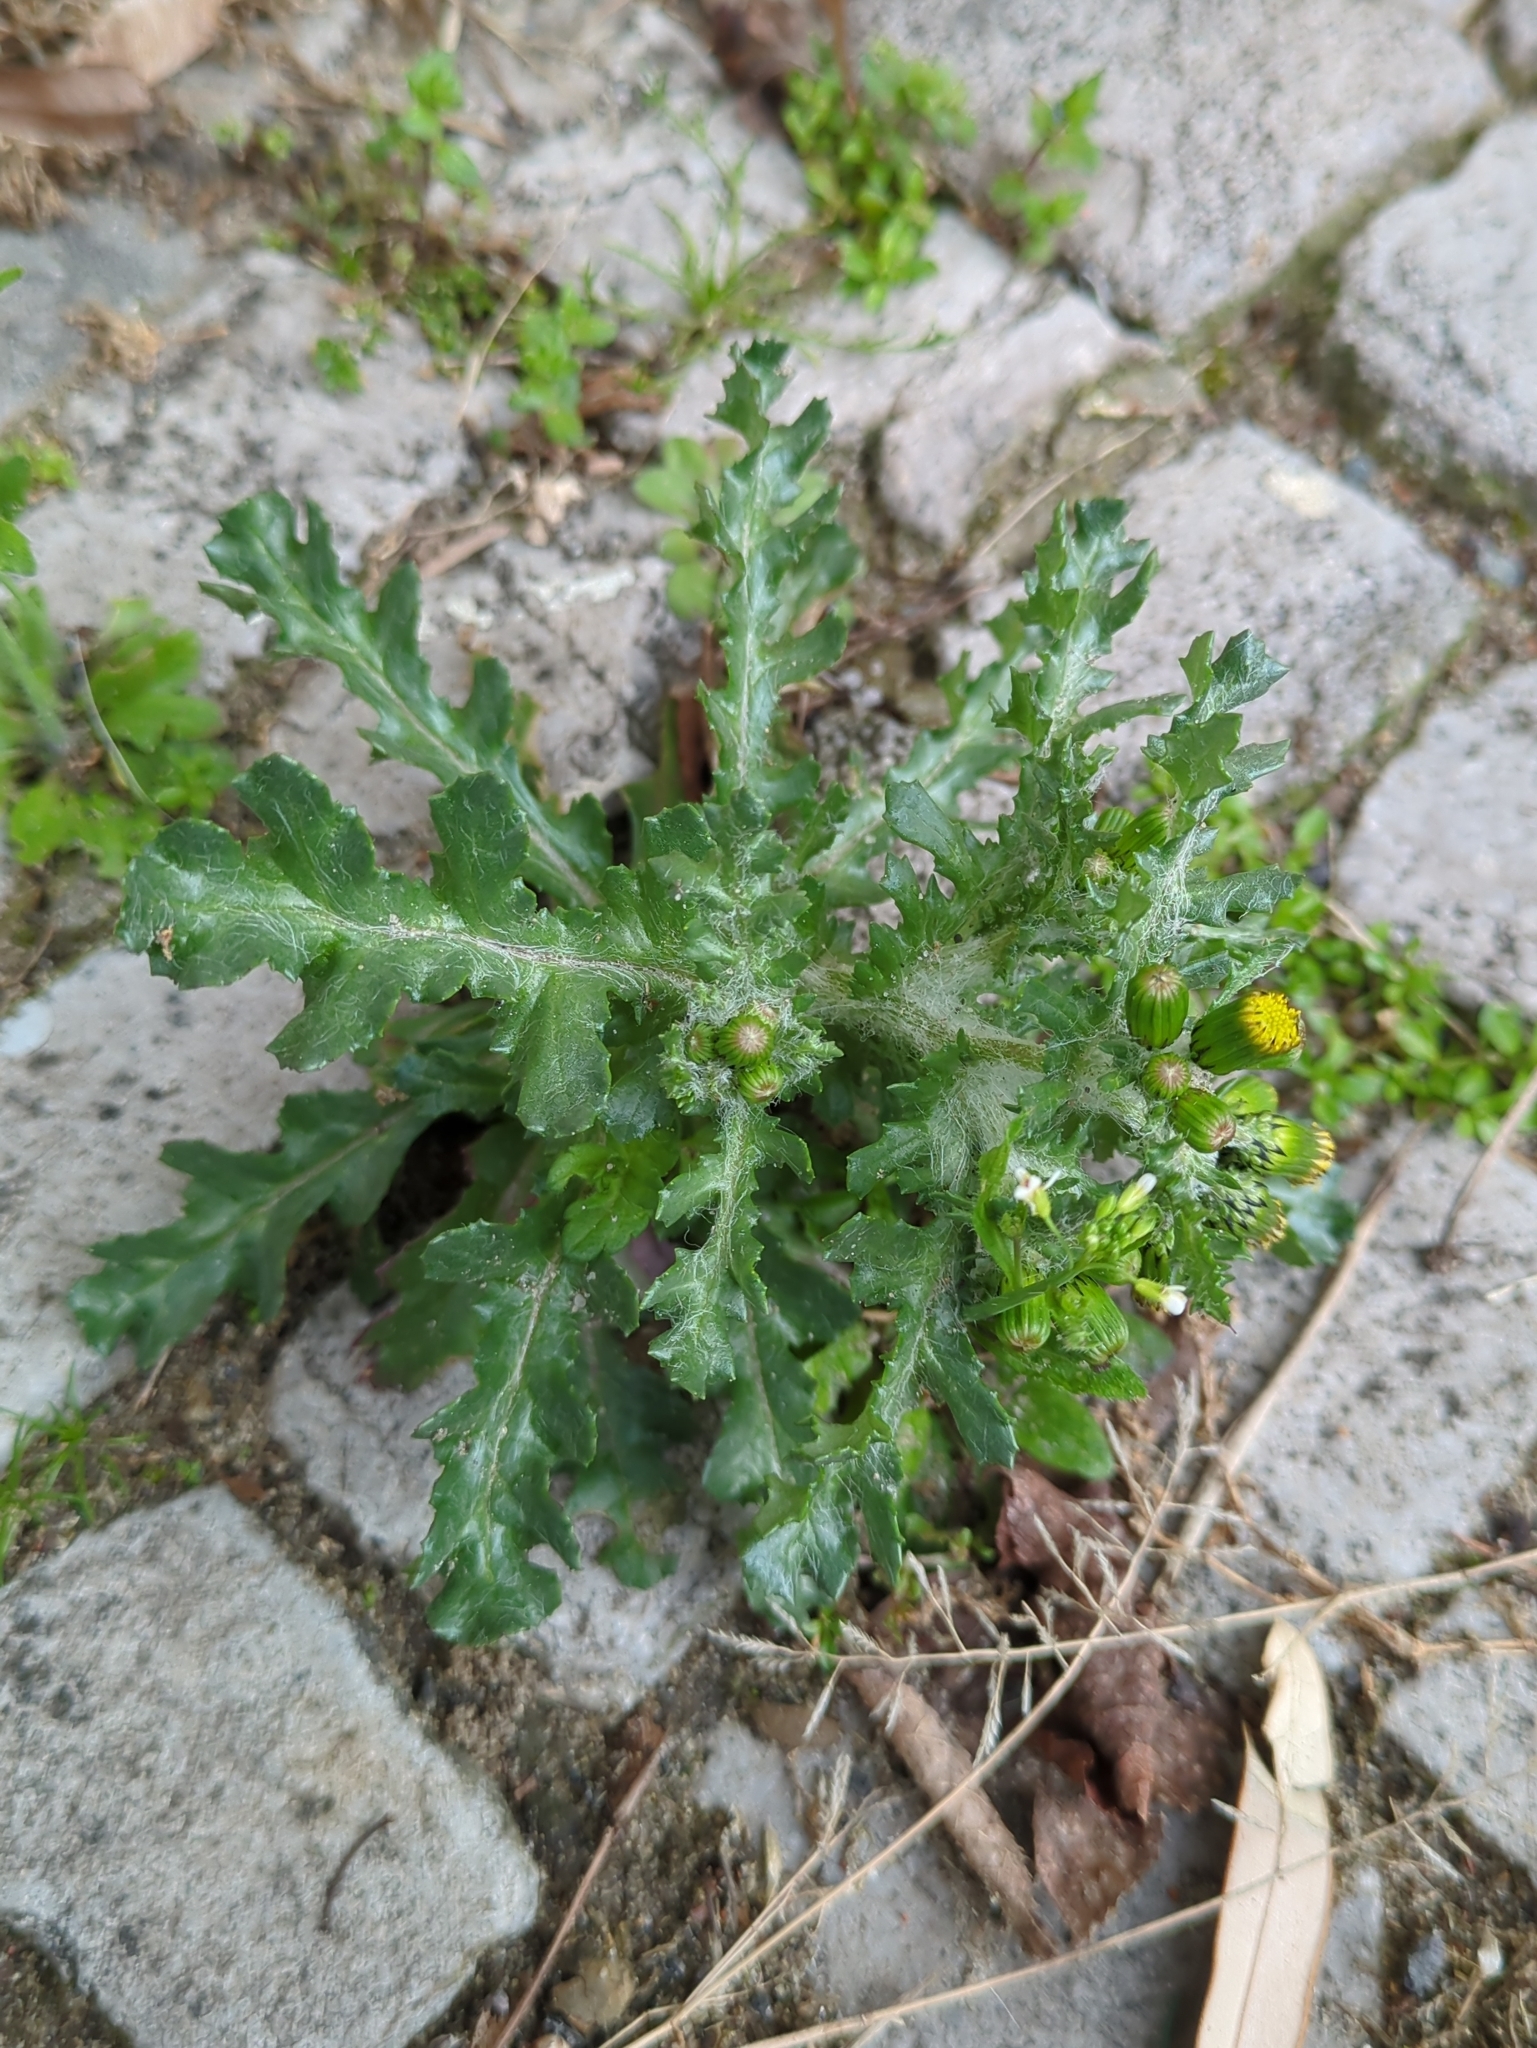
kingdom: Plantae
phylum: Tracheophyta
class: Magnoliopsida
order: Asterales
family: Asteraceae
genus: Senecio
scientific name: Senecio vulgaris
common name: Old-man-in-the-spring
